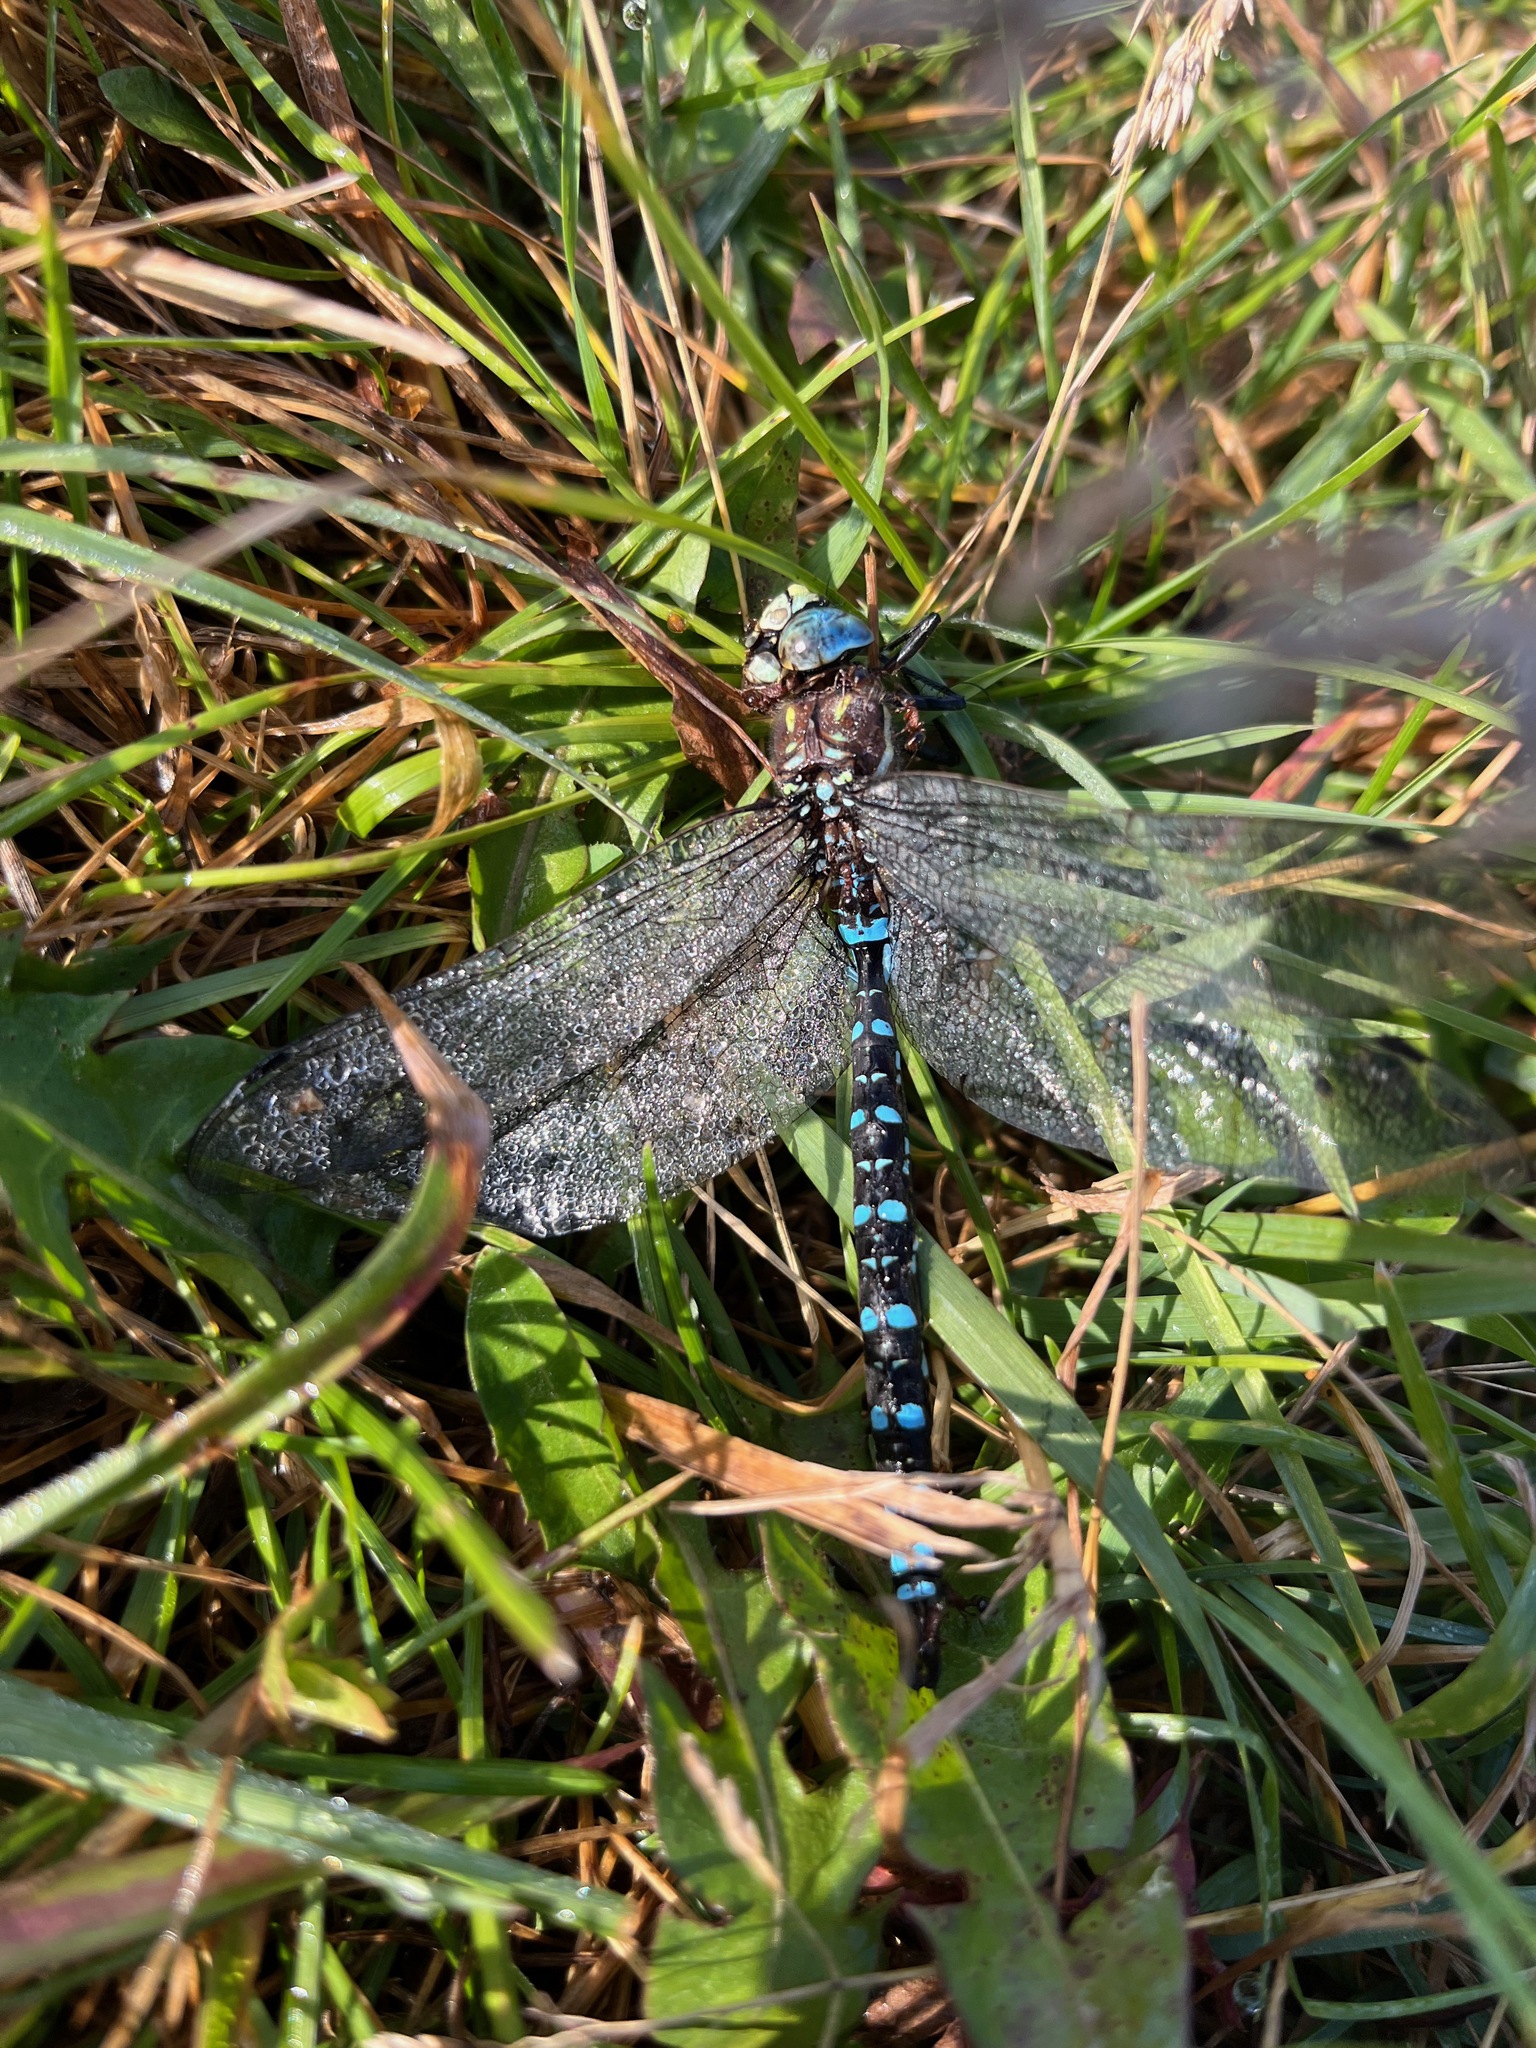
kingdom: Animalia
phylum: Arthropoda
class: Insecta
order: Odonata
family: Aeshnidae
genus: Aeshna
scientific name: Aeshna palmata
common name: Paddle-tailed darner
